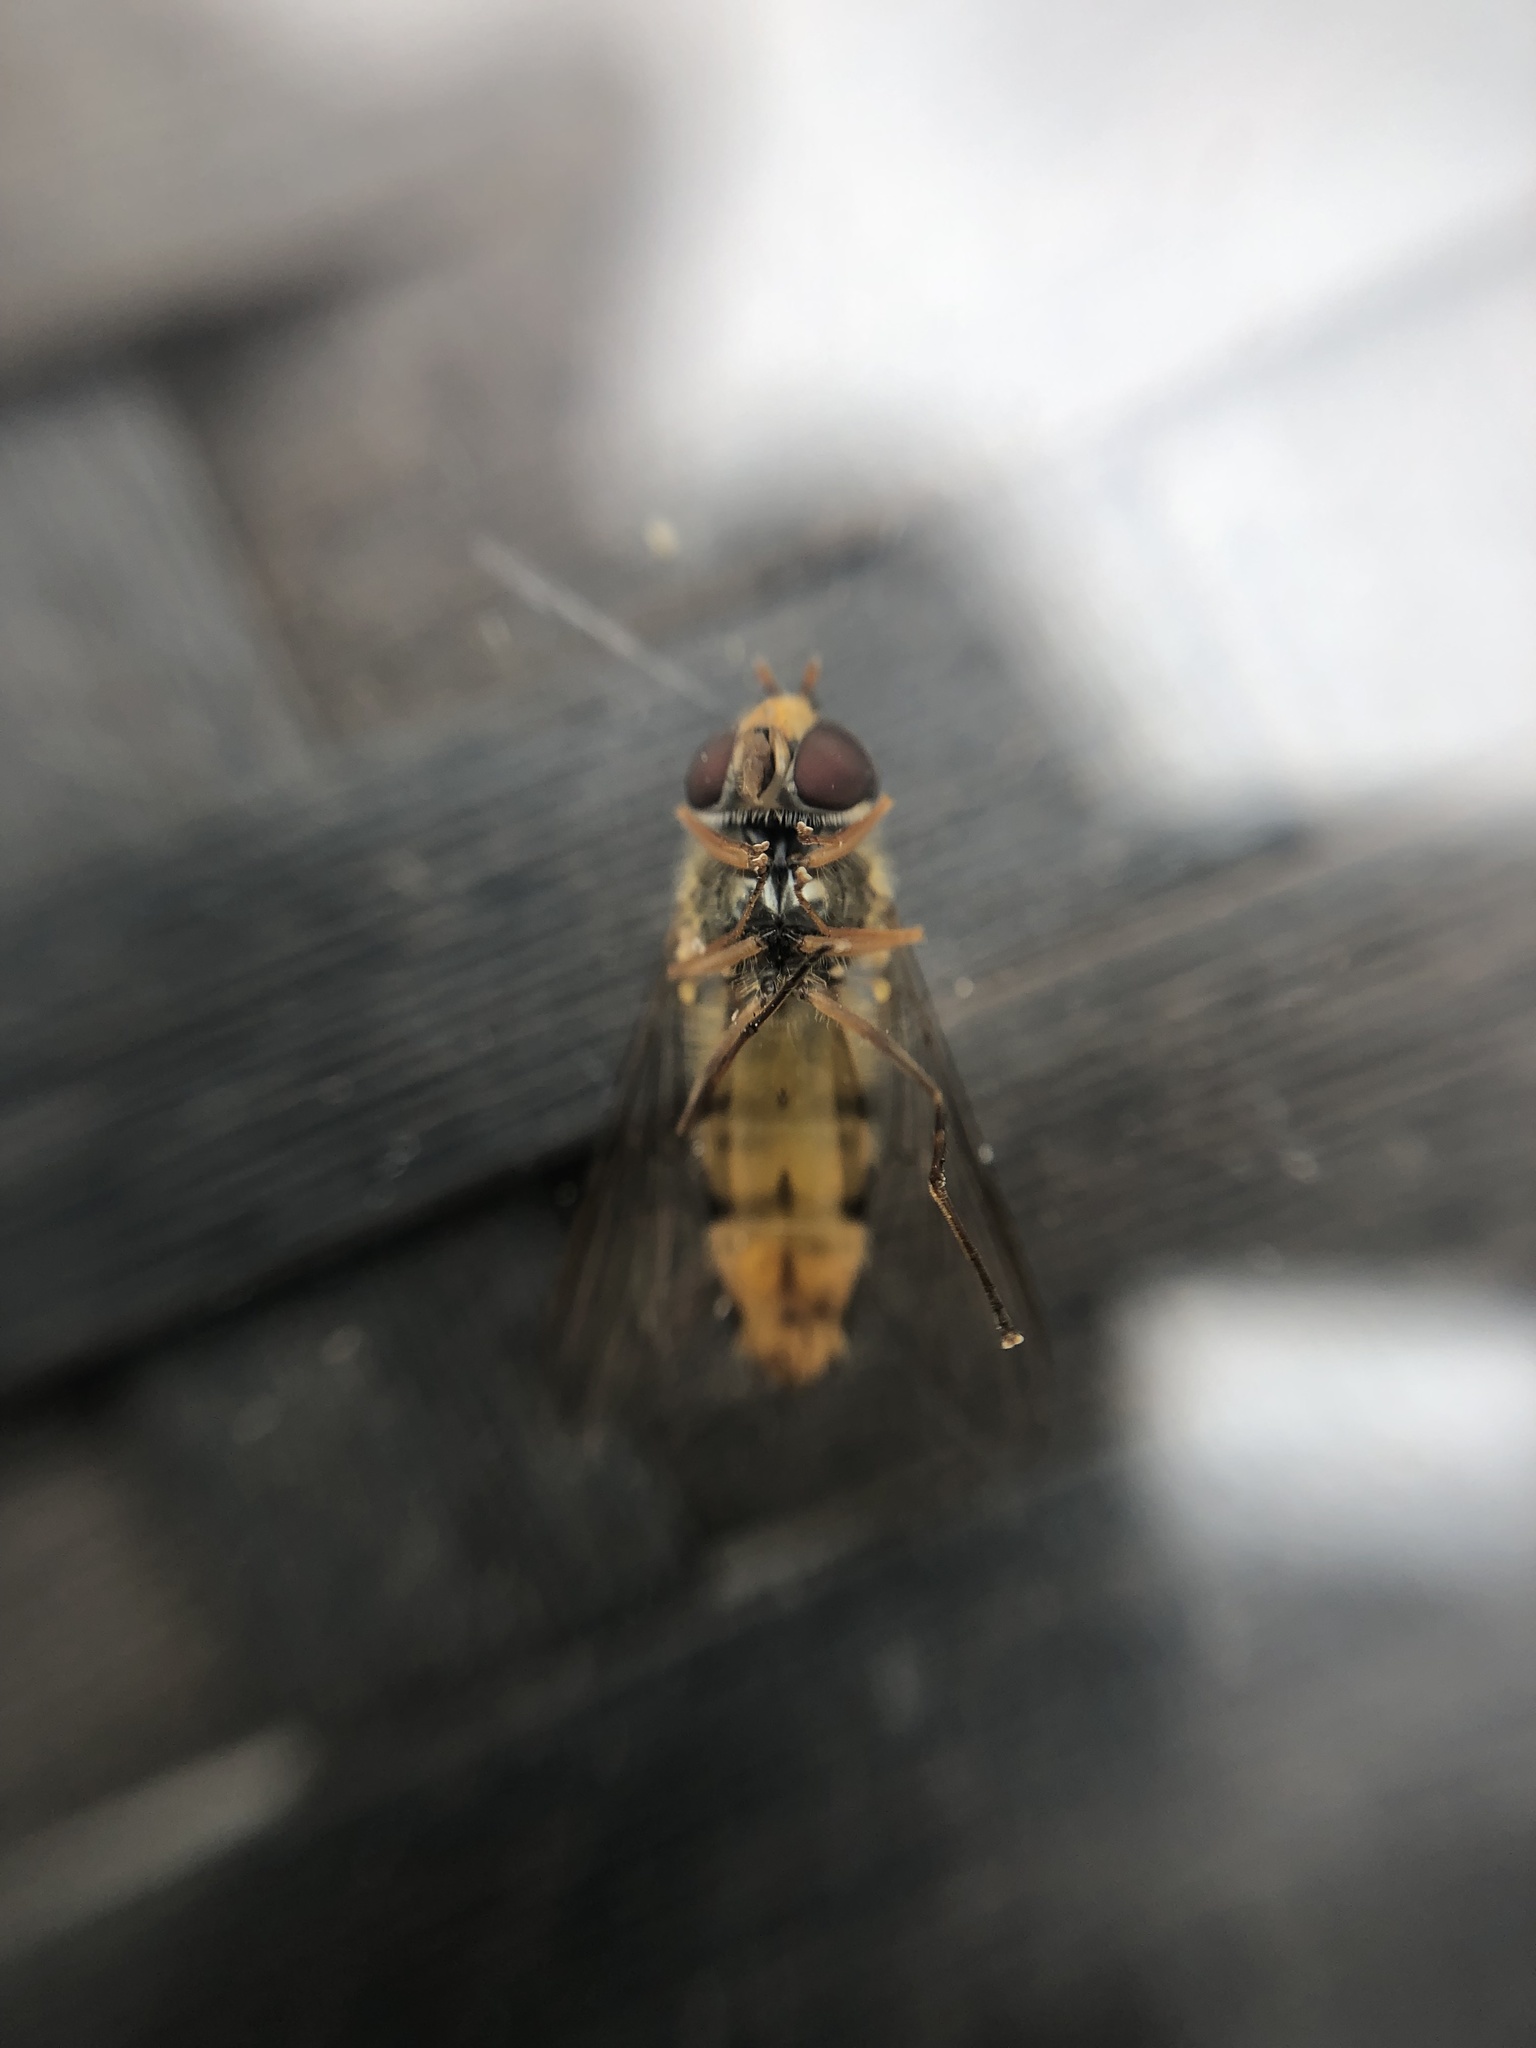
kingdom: Animalia
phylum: Arthropoda
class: Insecta
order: Diptera
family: Syrphidae
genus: Episyrphus
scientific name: Episyrphus balteatus
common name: Marmalade hoverfly
